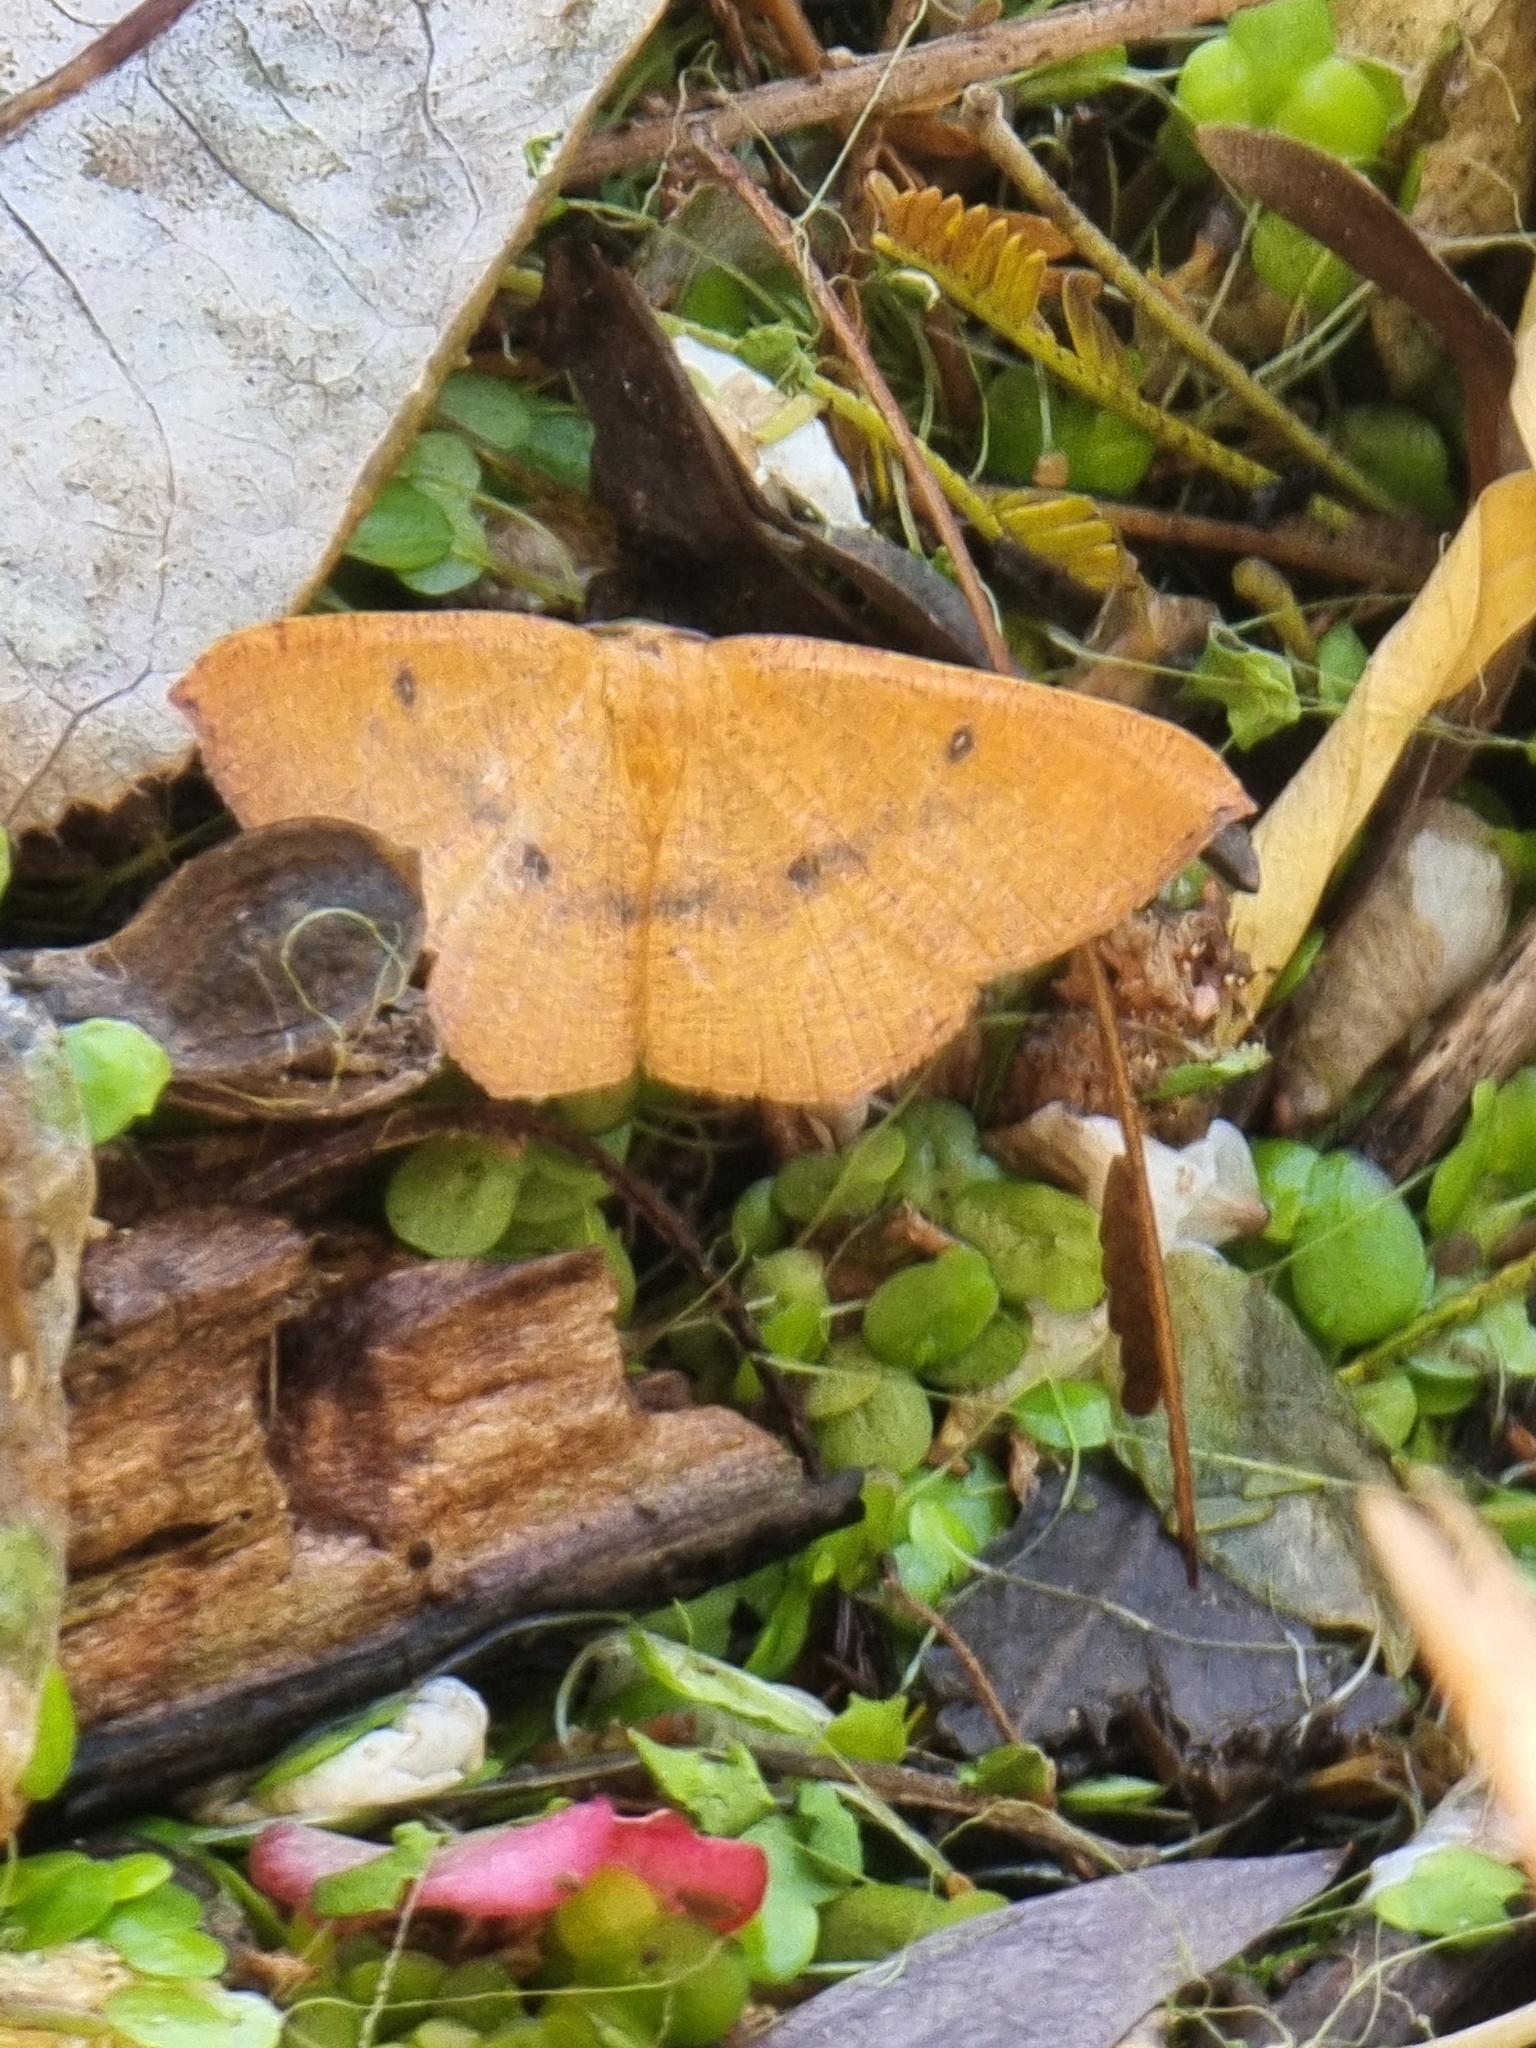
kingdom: Animalia
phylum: Arthropoda
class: Insecta
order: Lepidoptera
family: Geometridae
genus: Cyclophora
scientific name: Cyclophora puppillaria
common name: Blair's mocha
